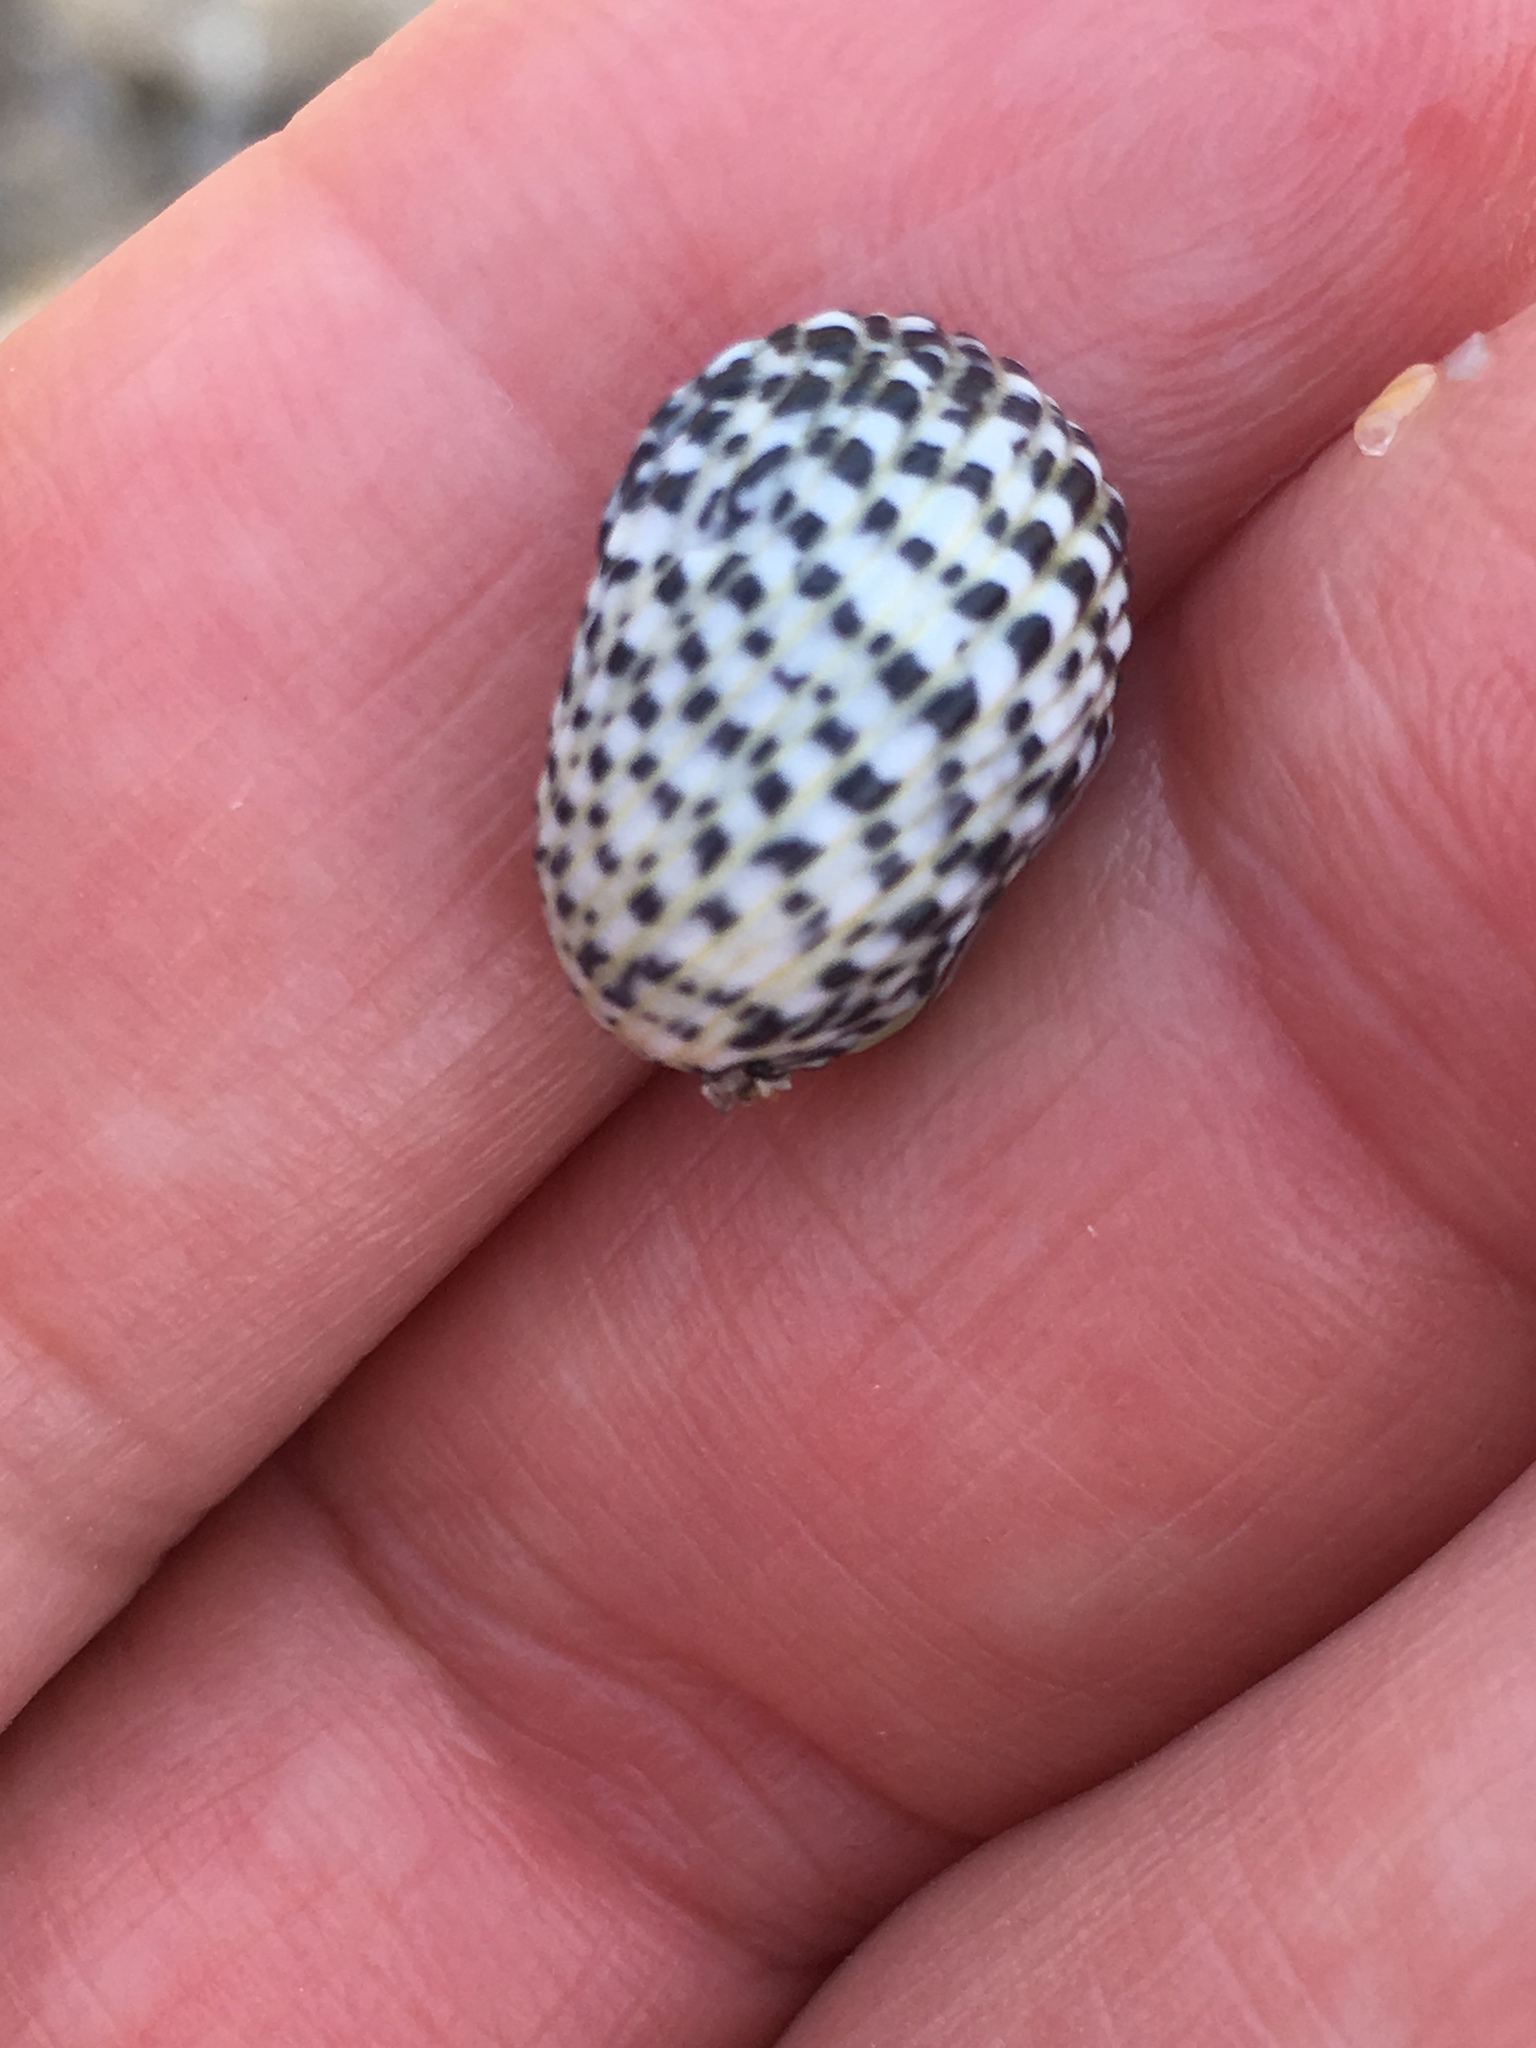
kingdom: Animalia
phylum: Mollusca
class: Gastropoda
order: Cycloneritida
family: Neritidae
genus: Nerita
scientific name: Nerita tessellata
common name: Checkered nerite
